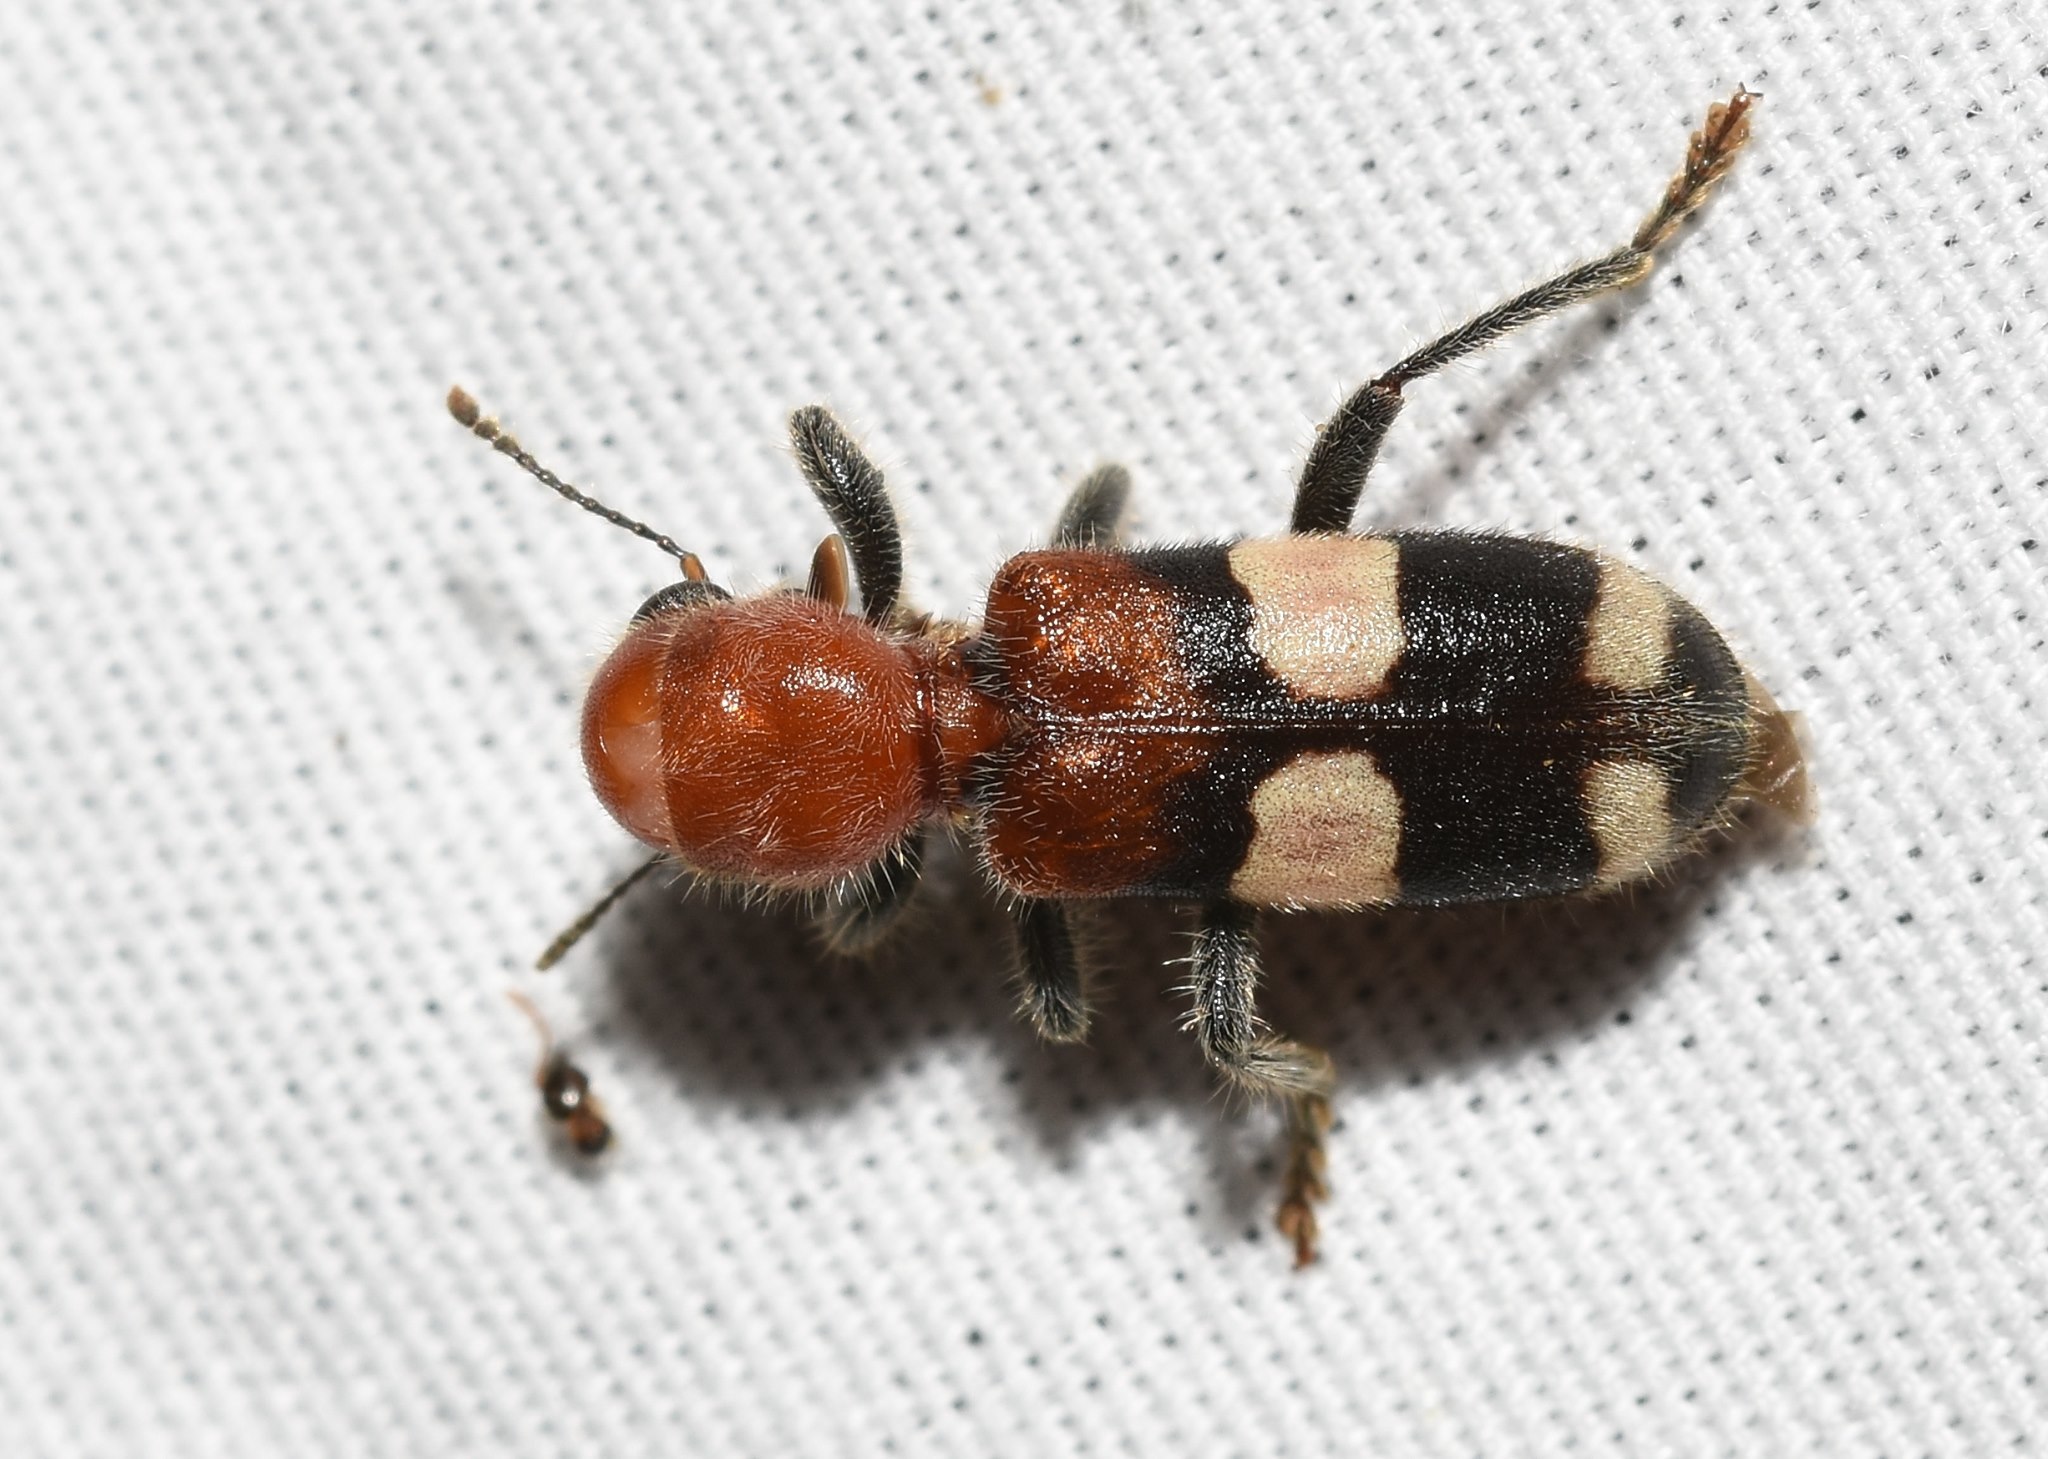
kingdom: Animalia
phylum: Arthropoda
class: Insecta
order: Coleoptera
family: Cleridae
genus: Enoclerus
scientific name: Enoclerus quadrisignatus
